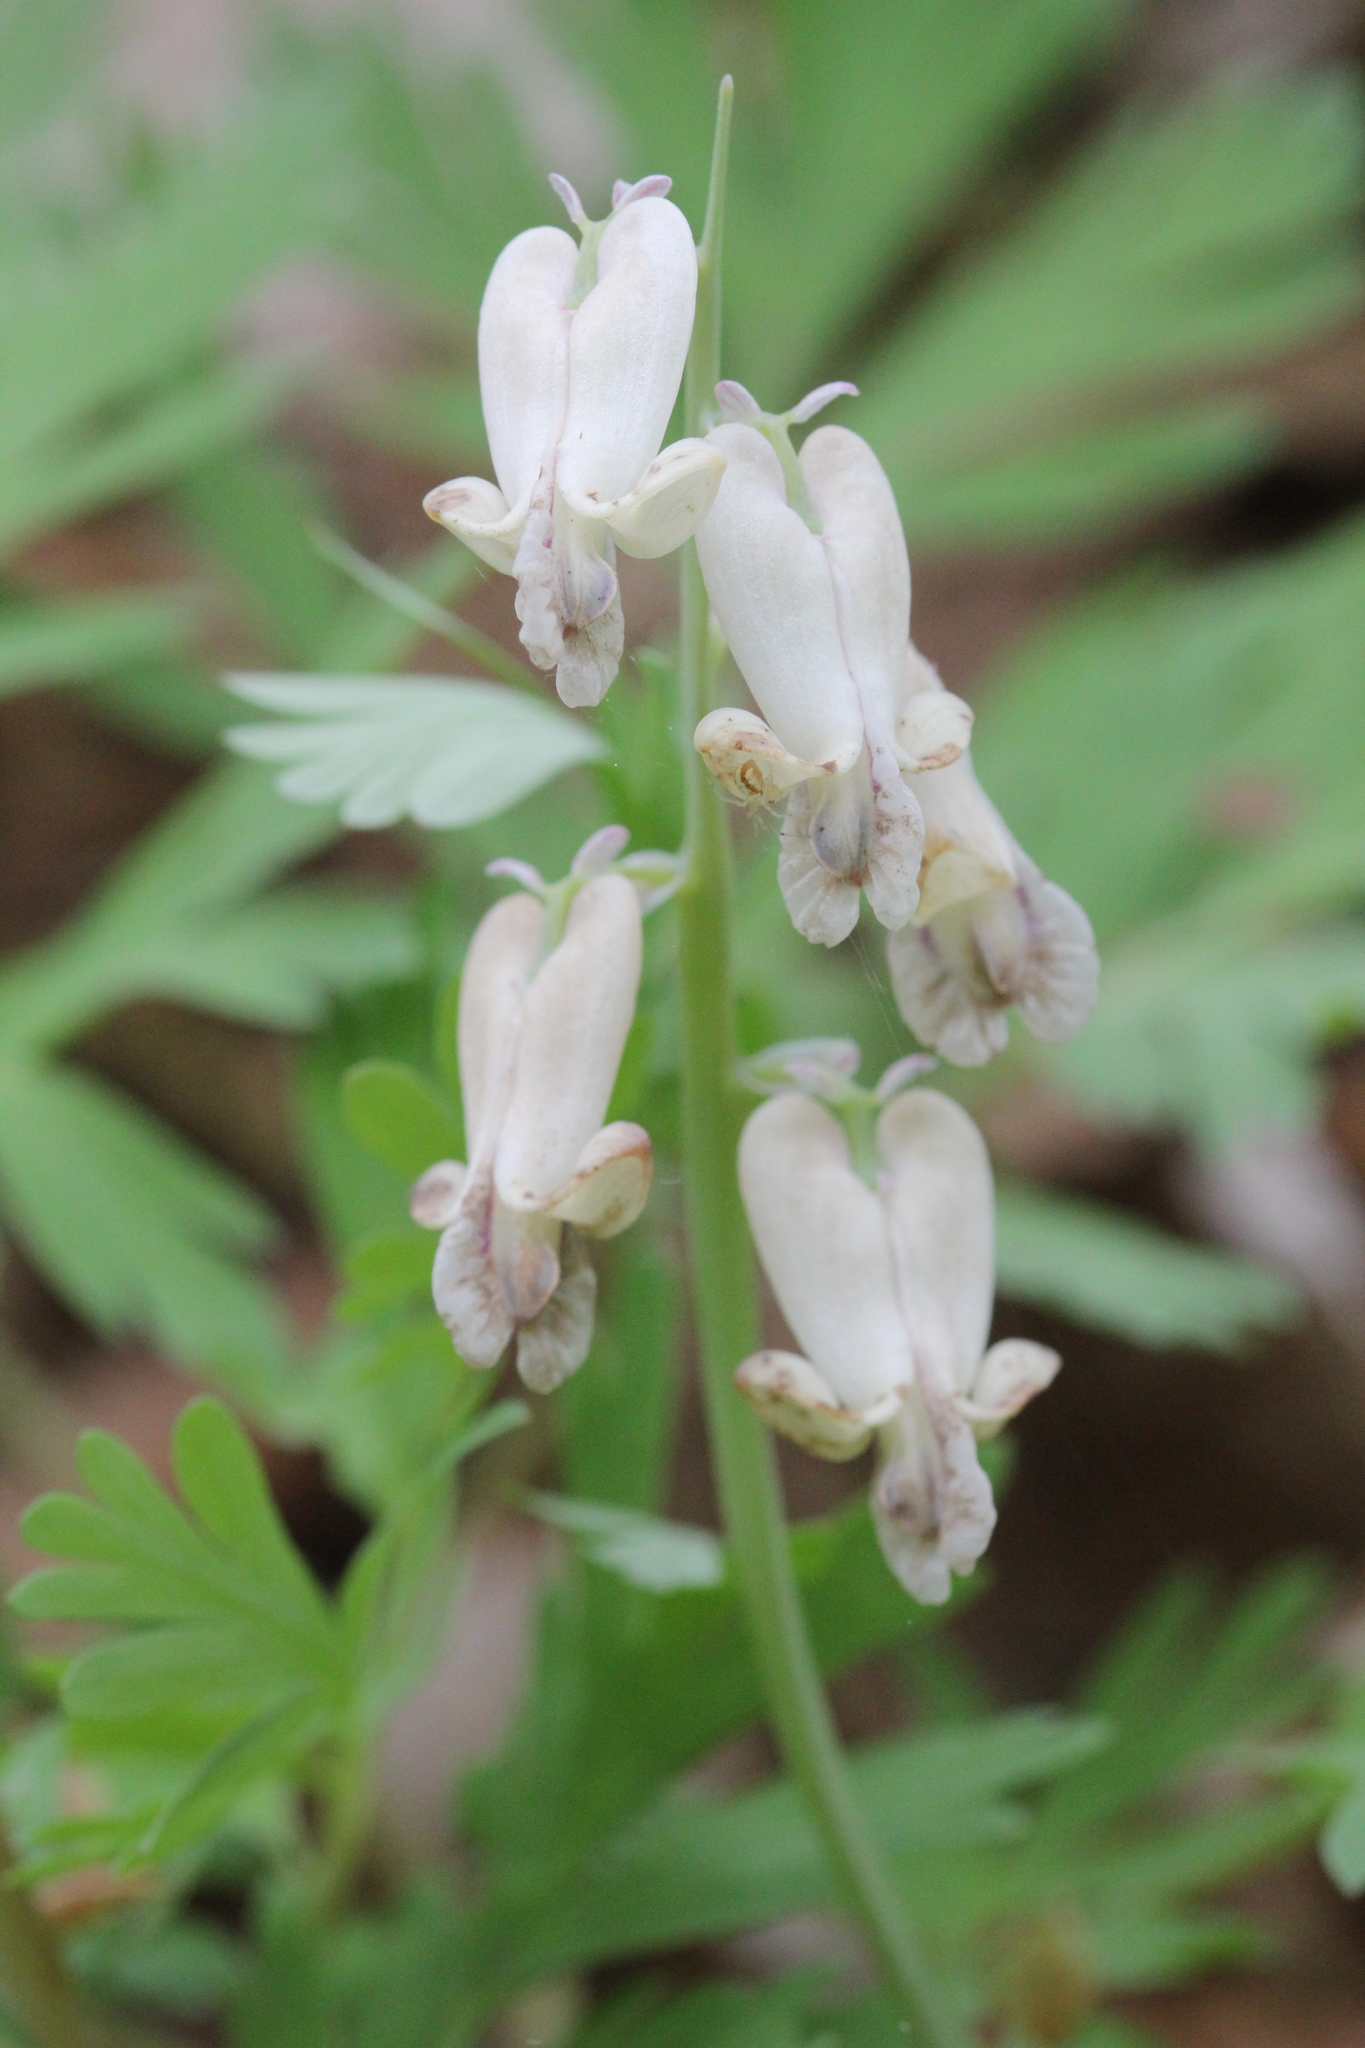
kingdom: Plantae
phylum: Tracheophyta
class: Magnoliopsida
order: Ranunculales
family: Papaveraceae
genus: Dicentra
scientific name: Dicentra canadensis
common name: Squirrel-corn
